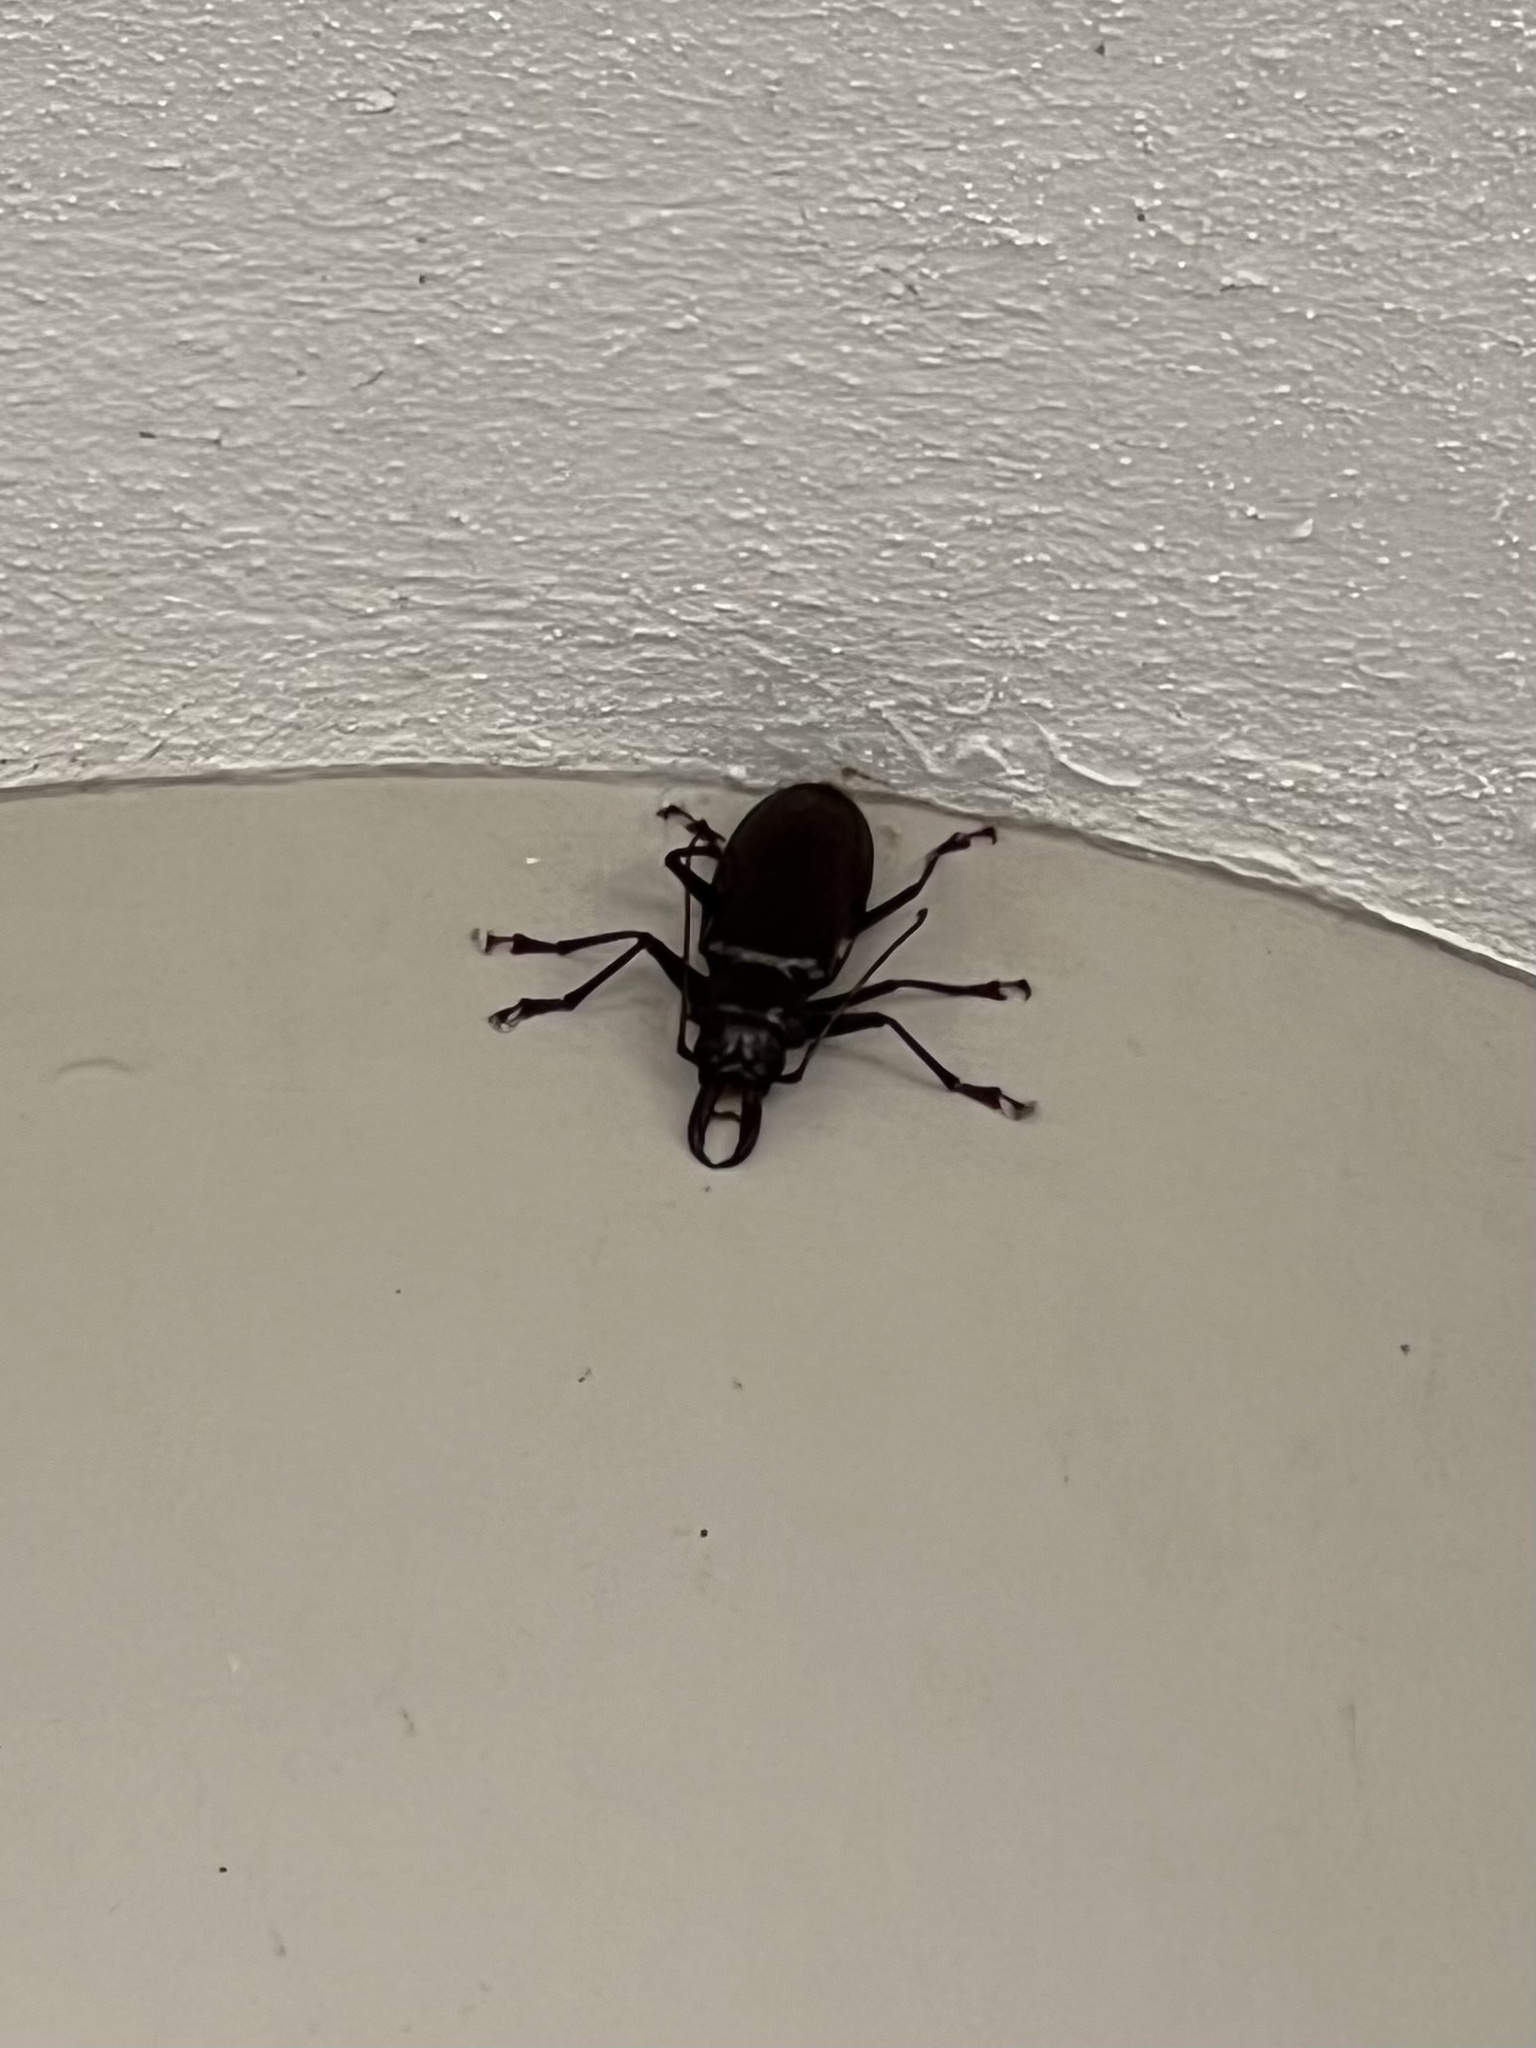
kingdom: Animalia
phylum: Arthropoda
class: Insecta
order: Coleoptera
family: Cerambycidae
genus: Stenodontes
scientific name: Stenodontes exsertus
